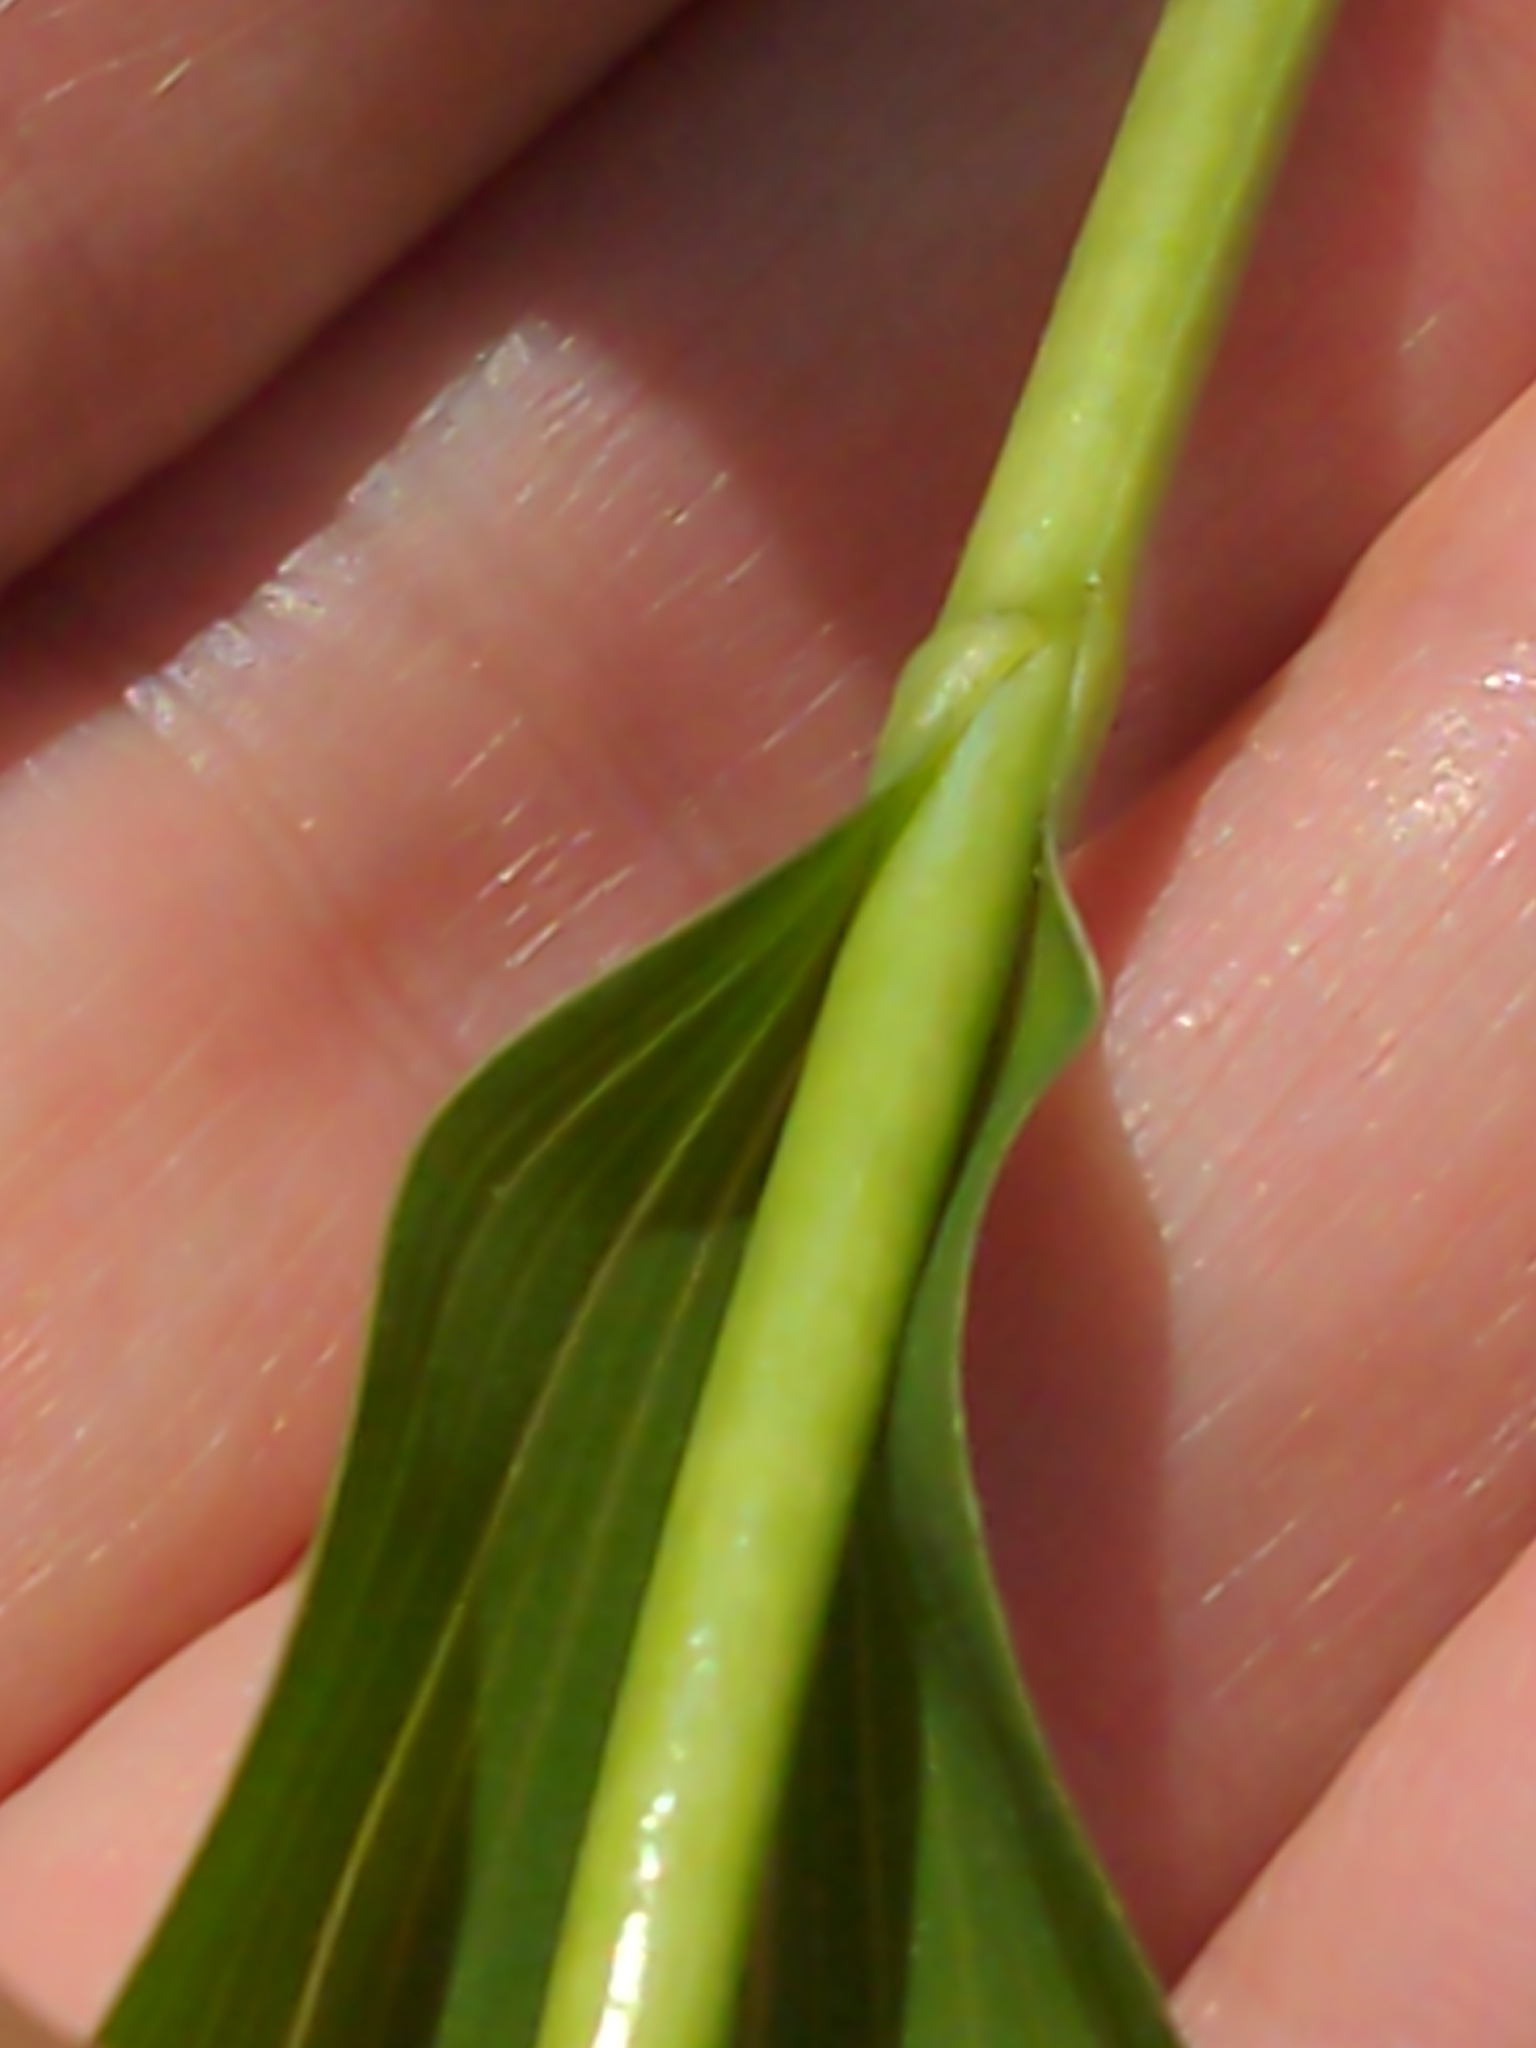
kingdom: Plantae
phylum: Tracheophyta
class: Liliopsida
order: Asparagales
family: Asparagaceae
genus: Polygonatum
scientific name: Polygonatum biflorum
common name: American solomon's-seal
